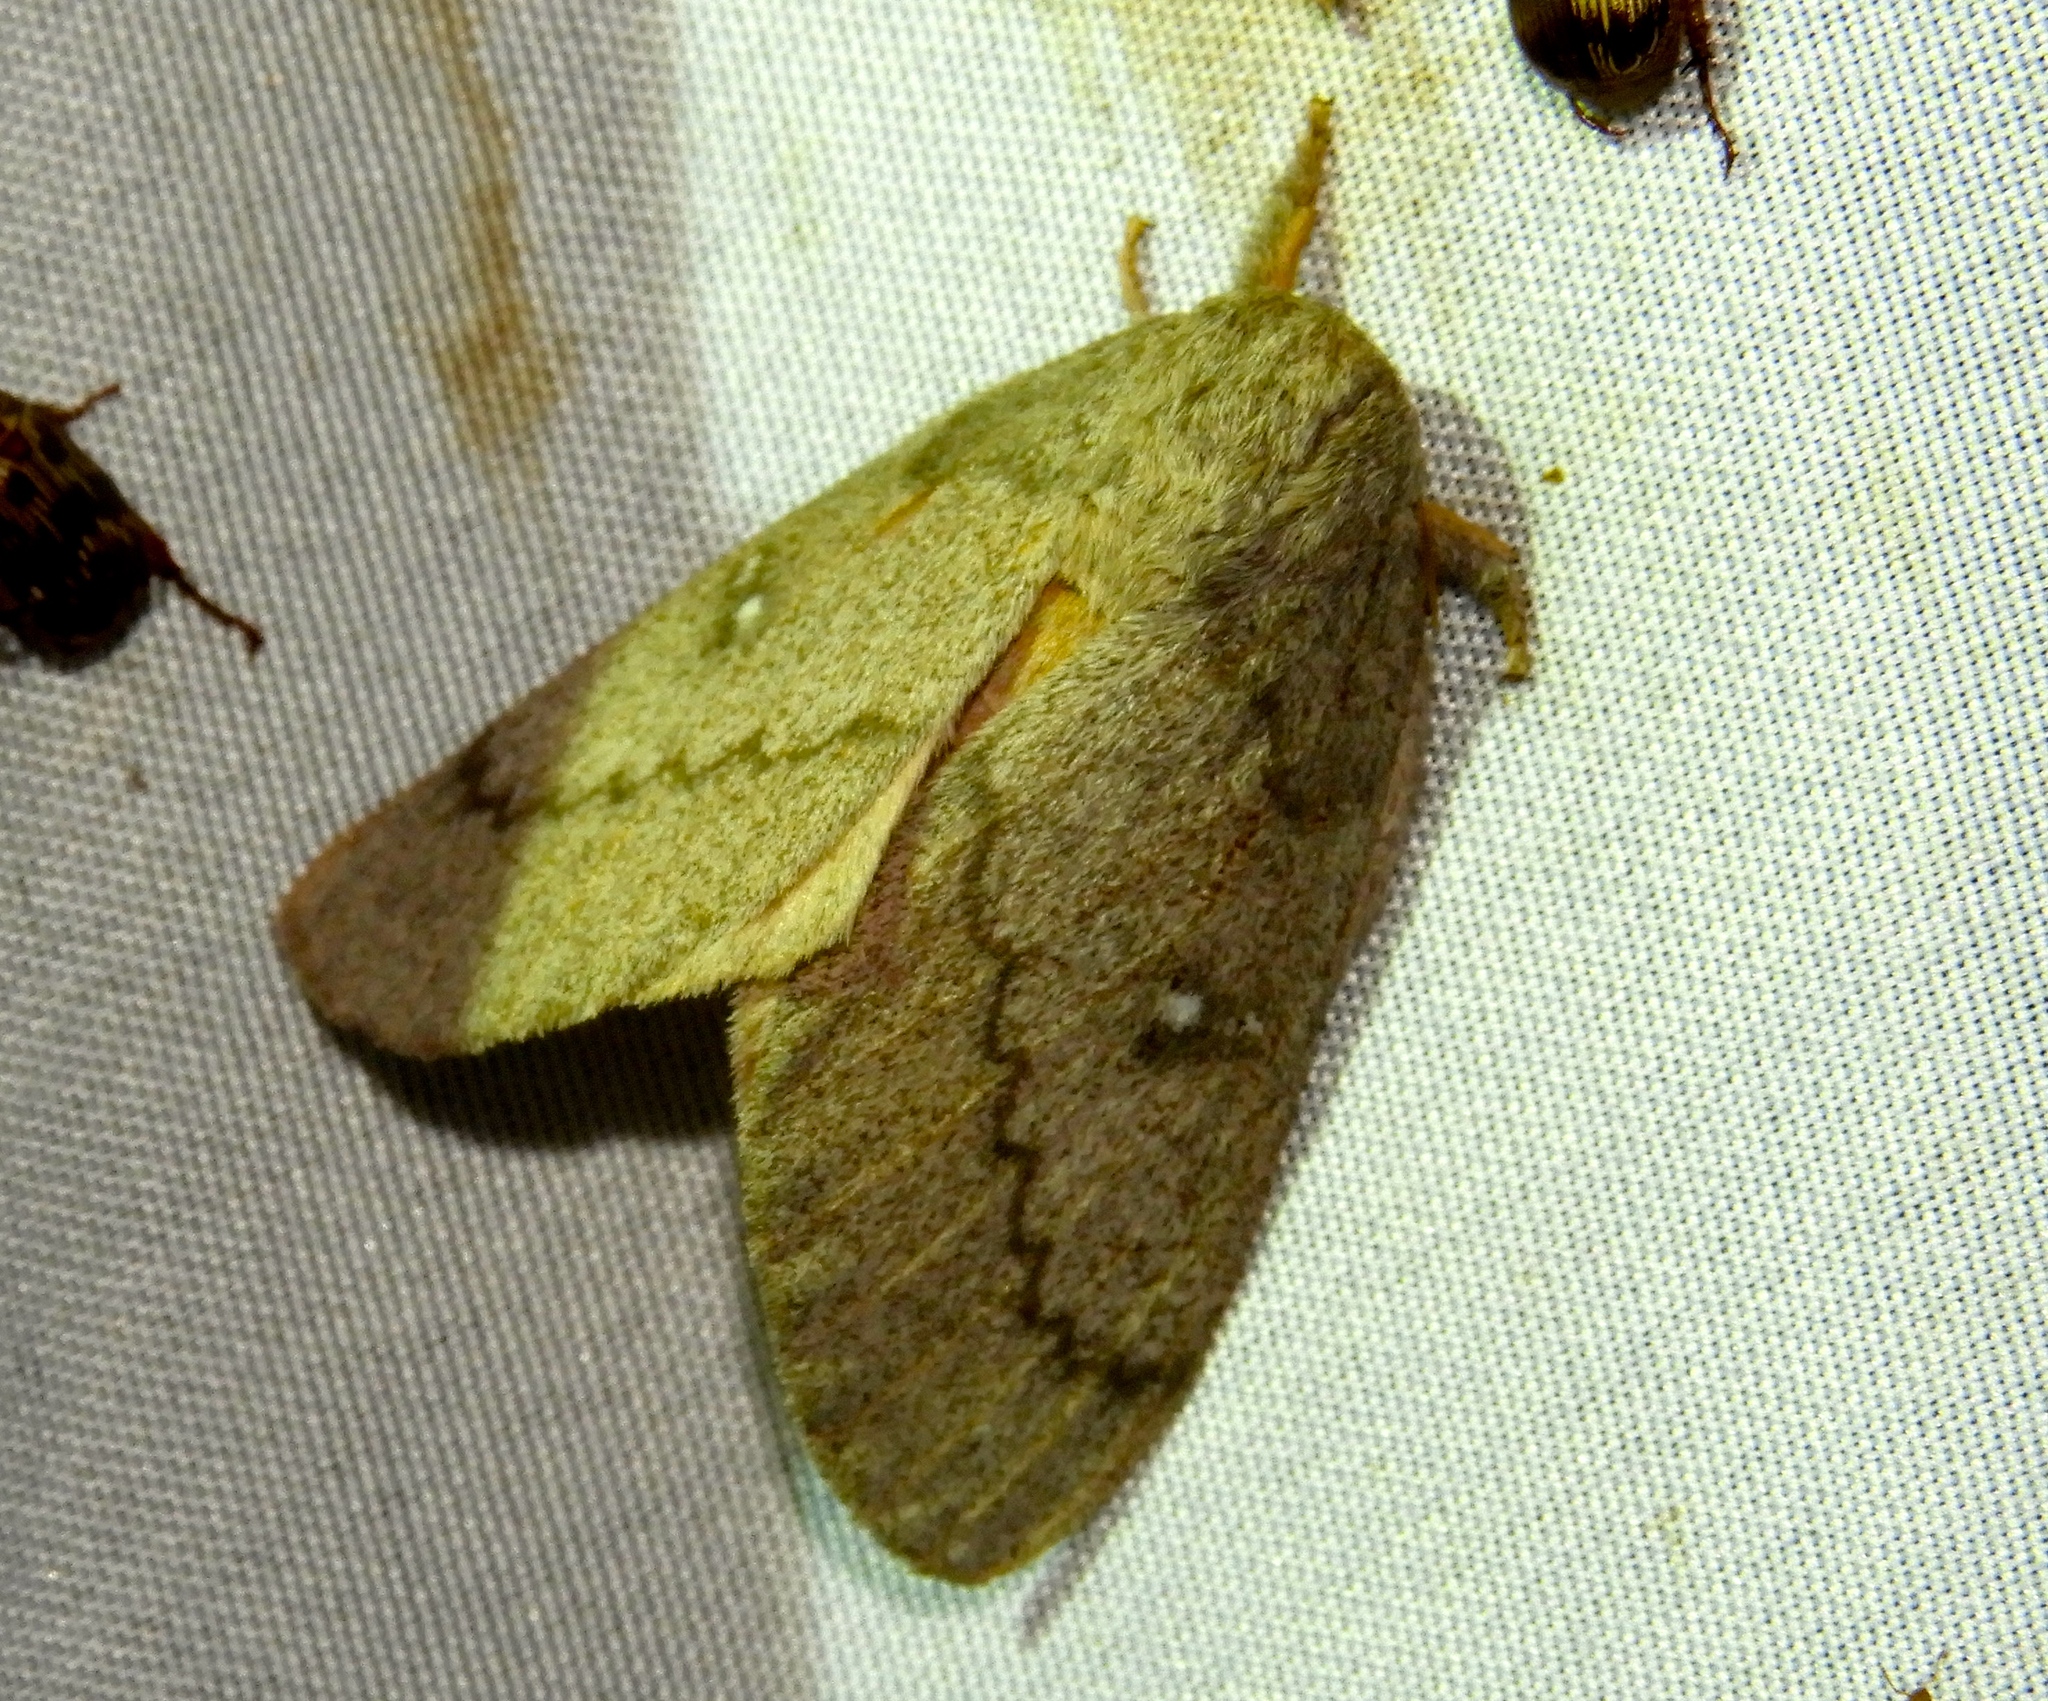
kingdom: Animalia
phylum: Arthropoda
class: Insecta
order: Lepidoptera
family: Saturniidae
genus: Syssphinx
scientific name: Syssphinx
